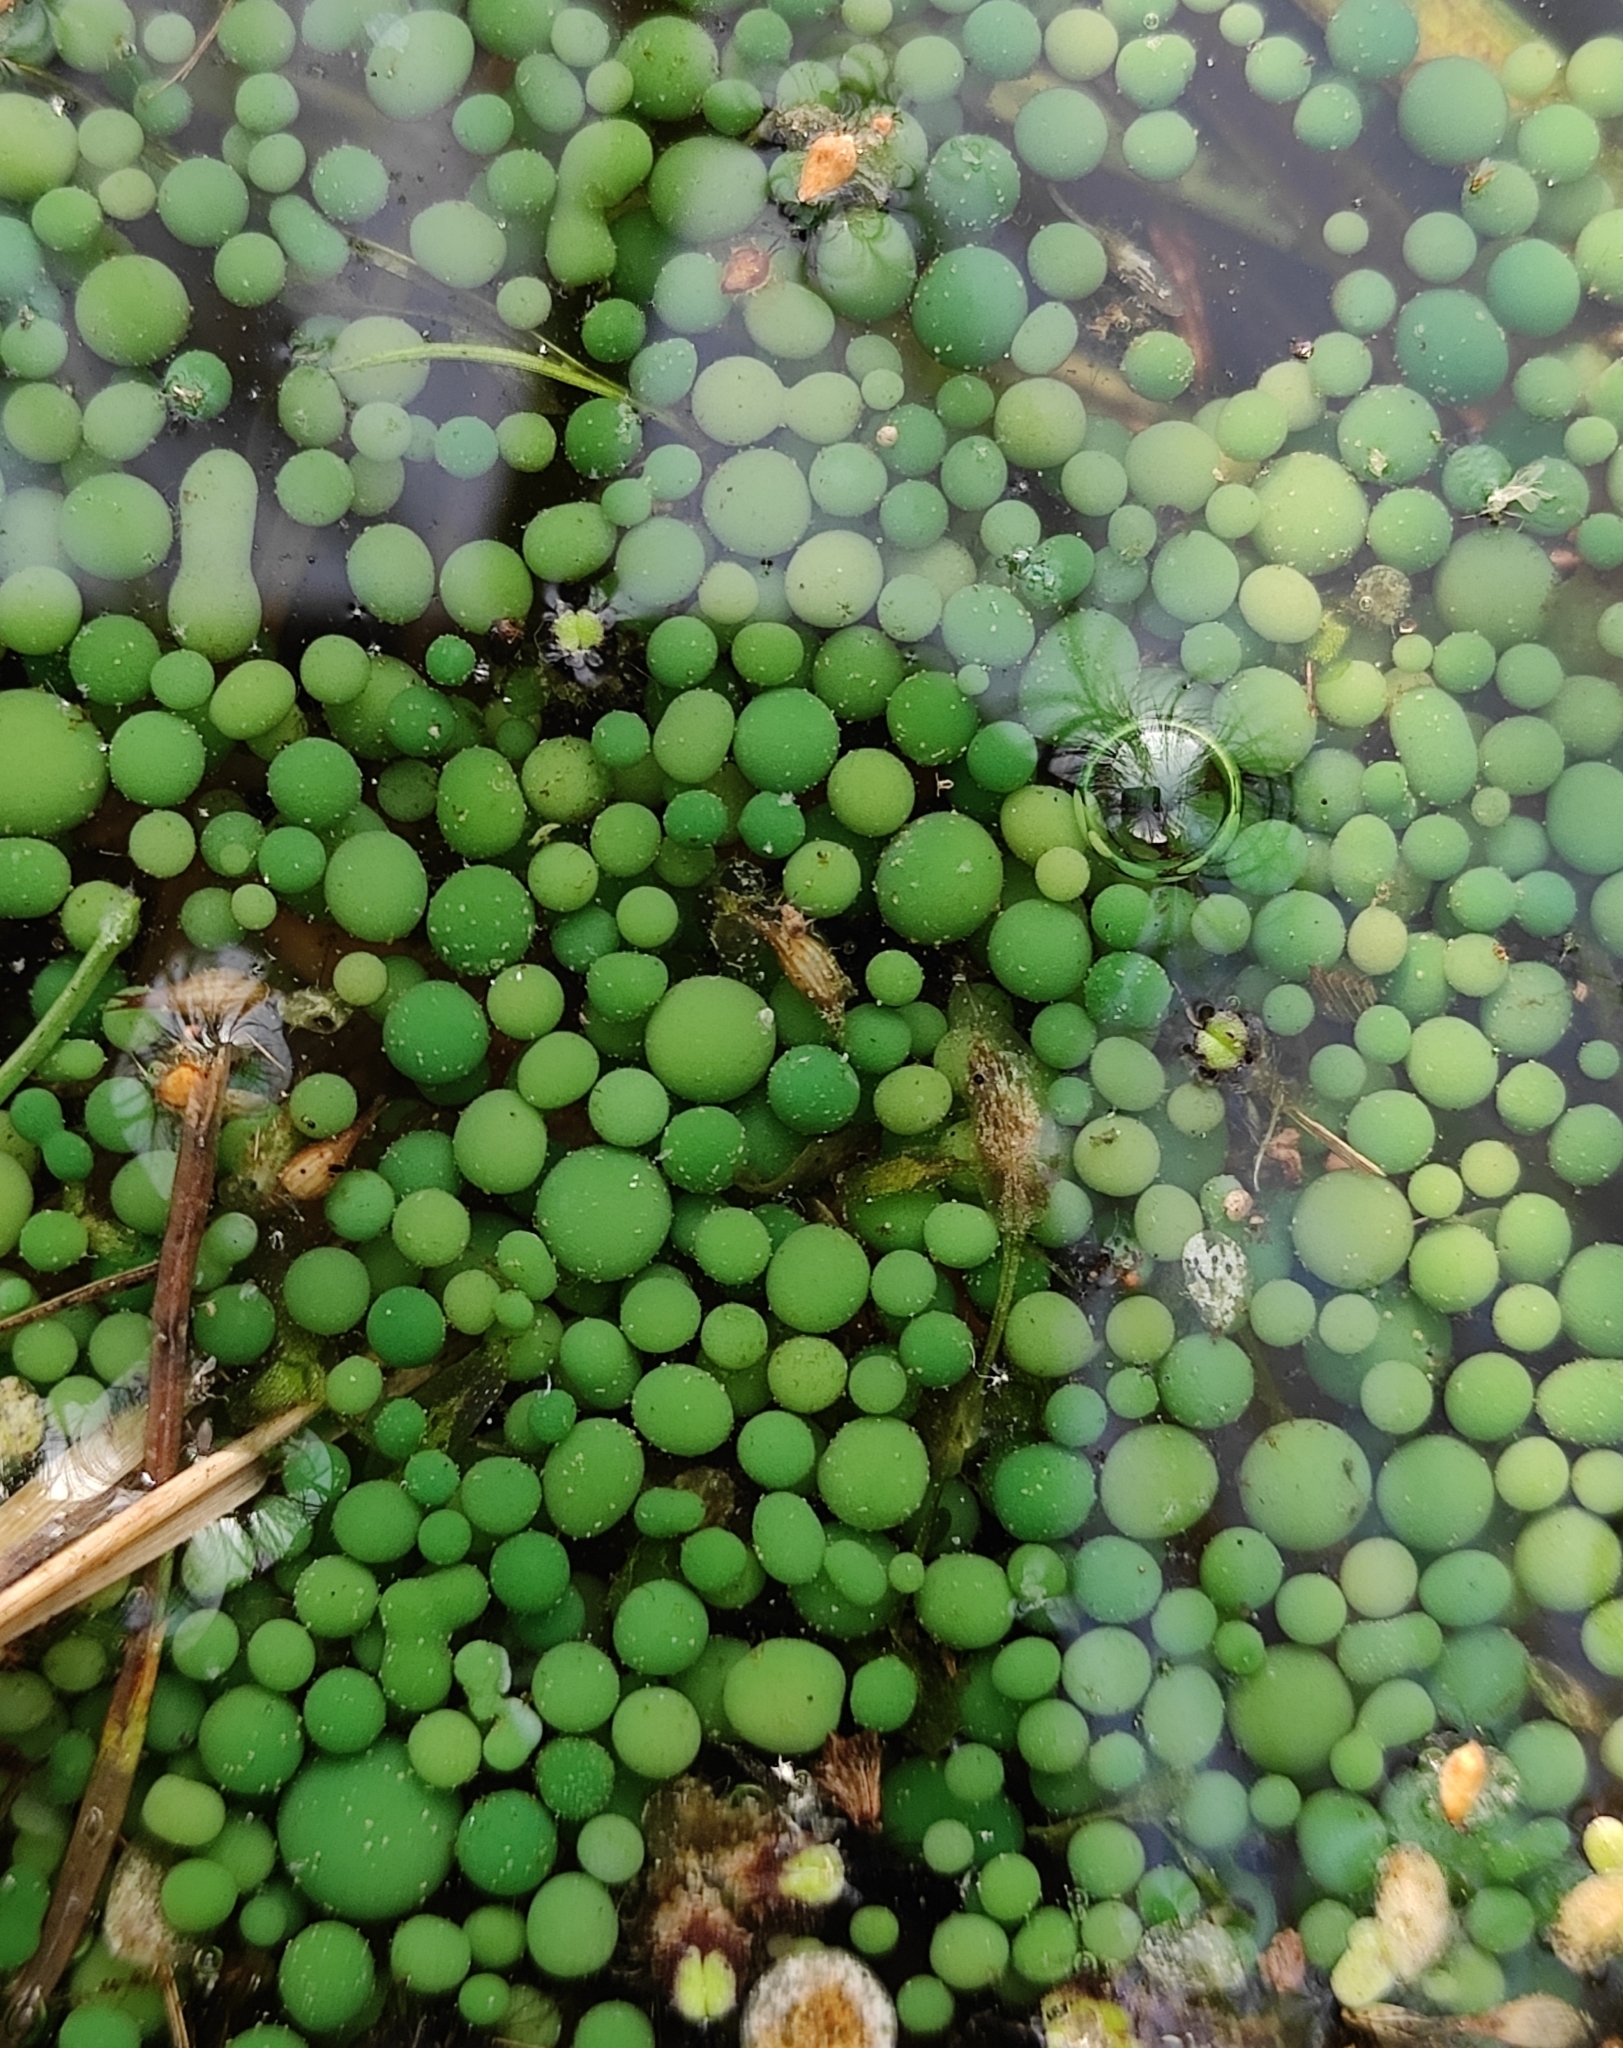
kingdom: Bacteria
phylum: Cyanobacteria
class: Cyanobacteriia
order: Cyanobacteriales
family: Nostocaceae
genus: Nostoc
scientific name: Nostoc kihlmanii
